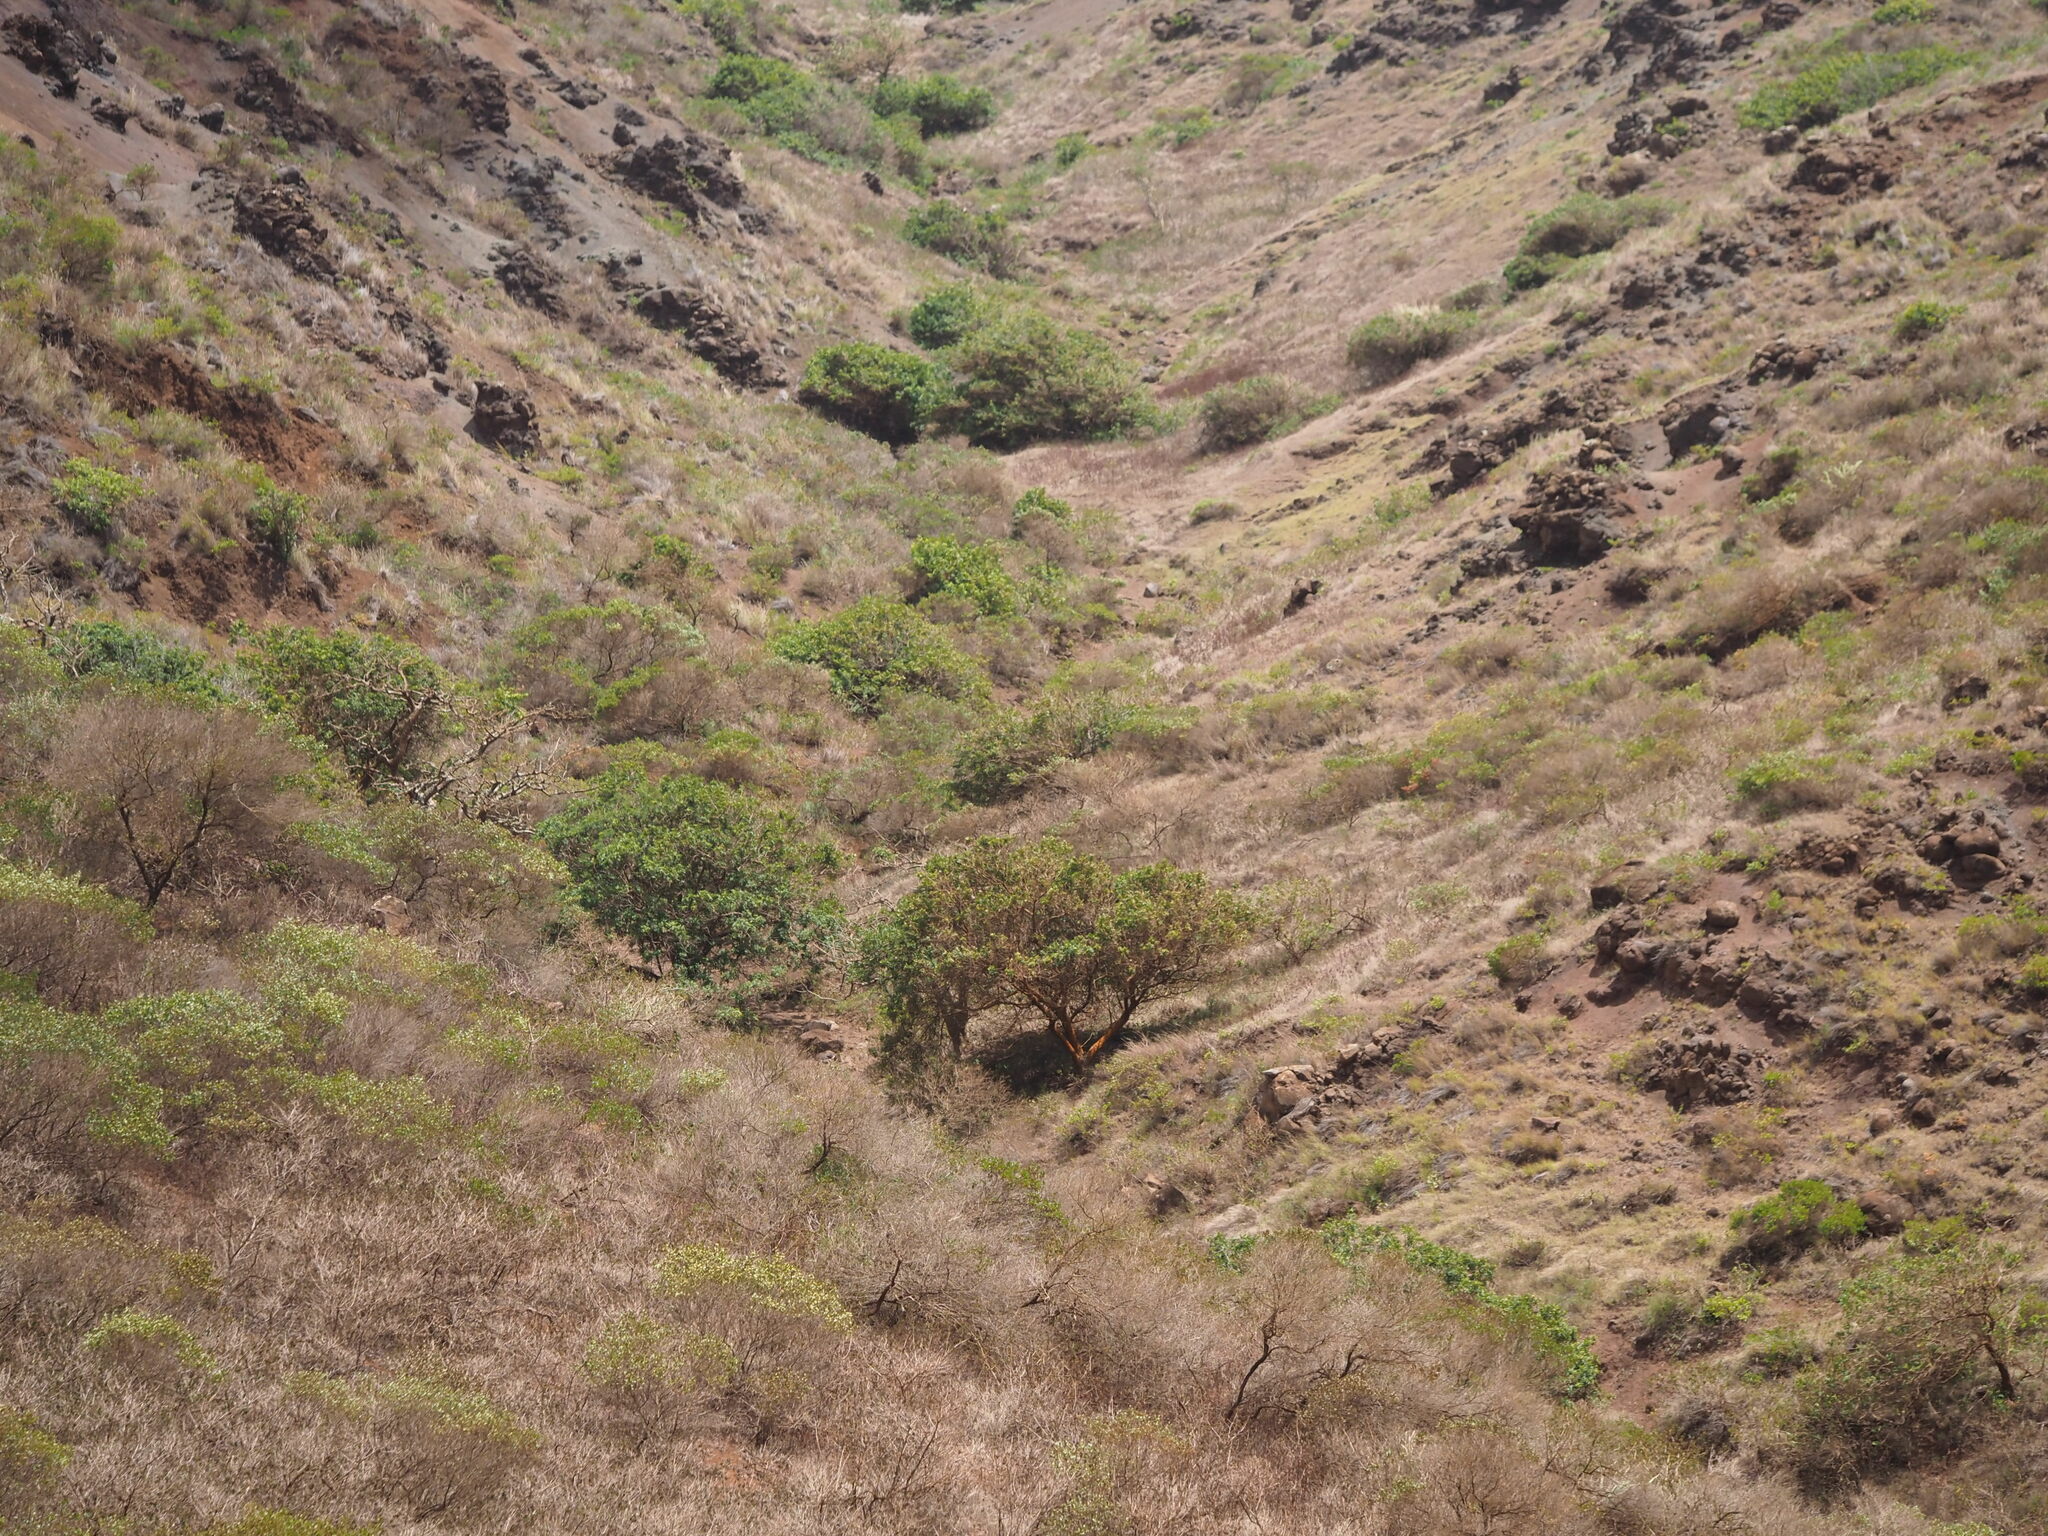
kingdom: Plantae
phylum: Tracheophyta
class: Magnoliopsida
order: Sapindales
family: Sapindaceae
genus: Dodonaea
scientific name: Dodonaea viscosa
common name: Hopbush
